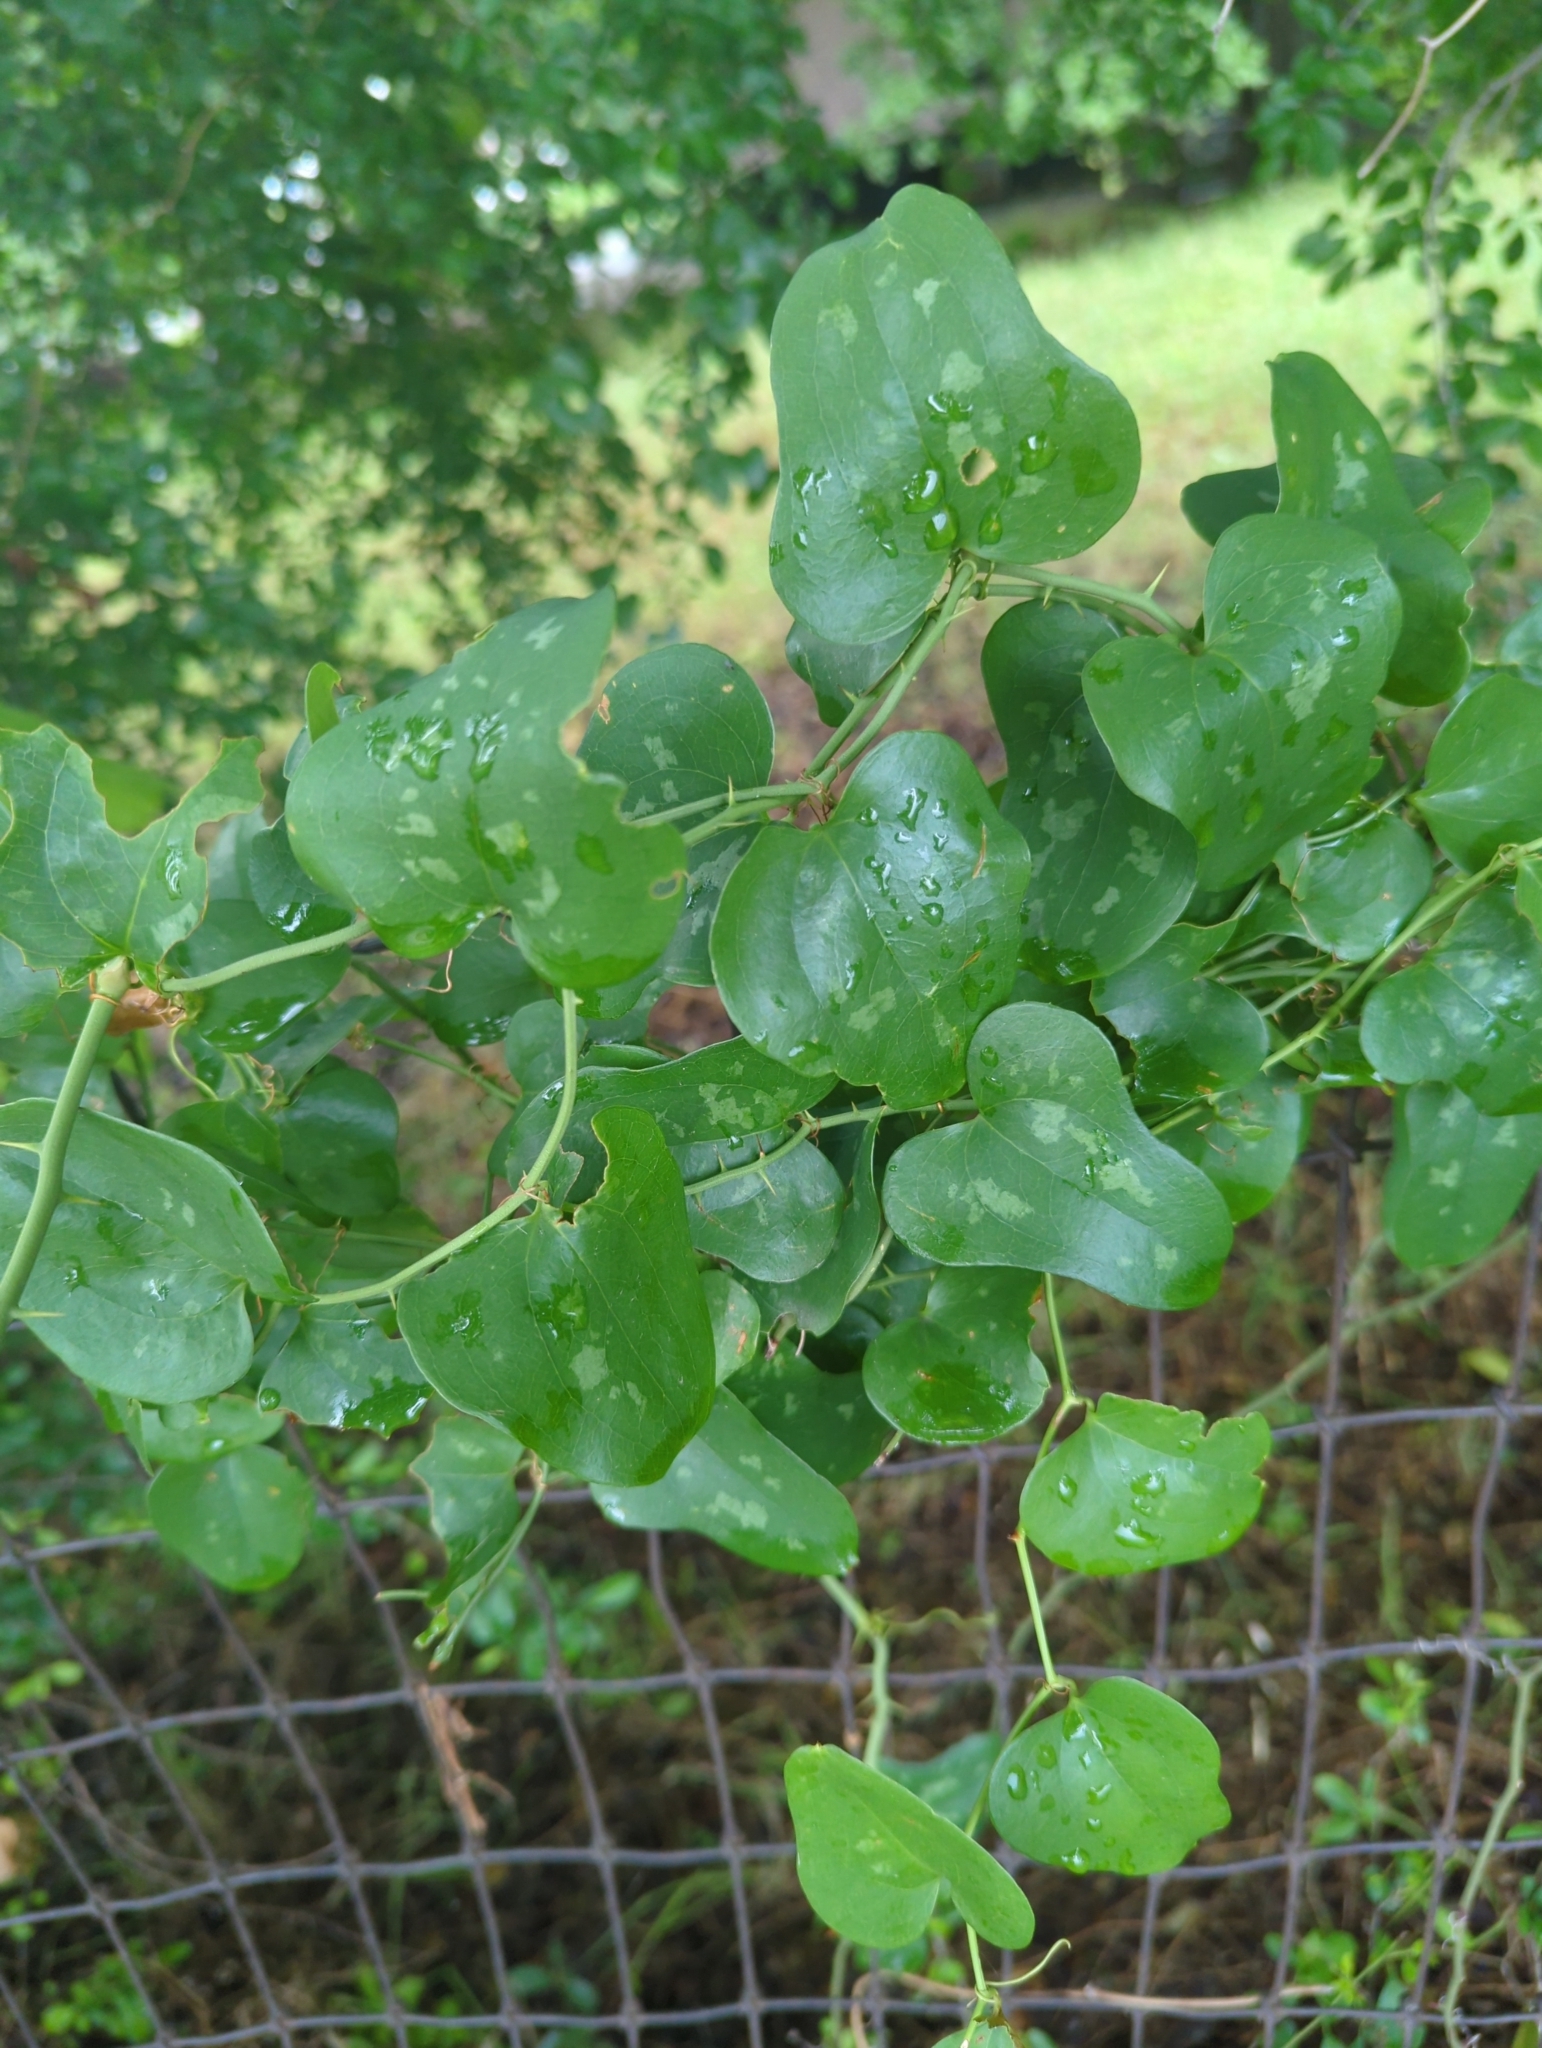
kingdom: Plantae
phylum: Tracheophyta
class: Liliopsida
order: Liliales
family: Smilacaceae
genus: Smilax
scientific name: Smilax bona-nox
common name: Catbrier
